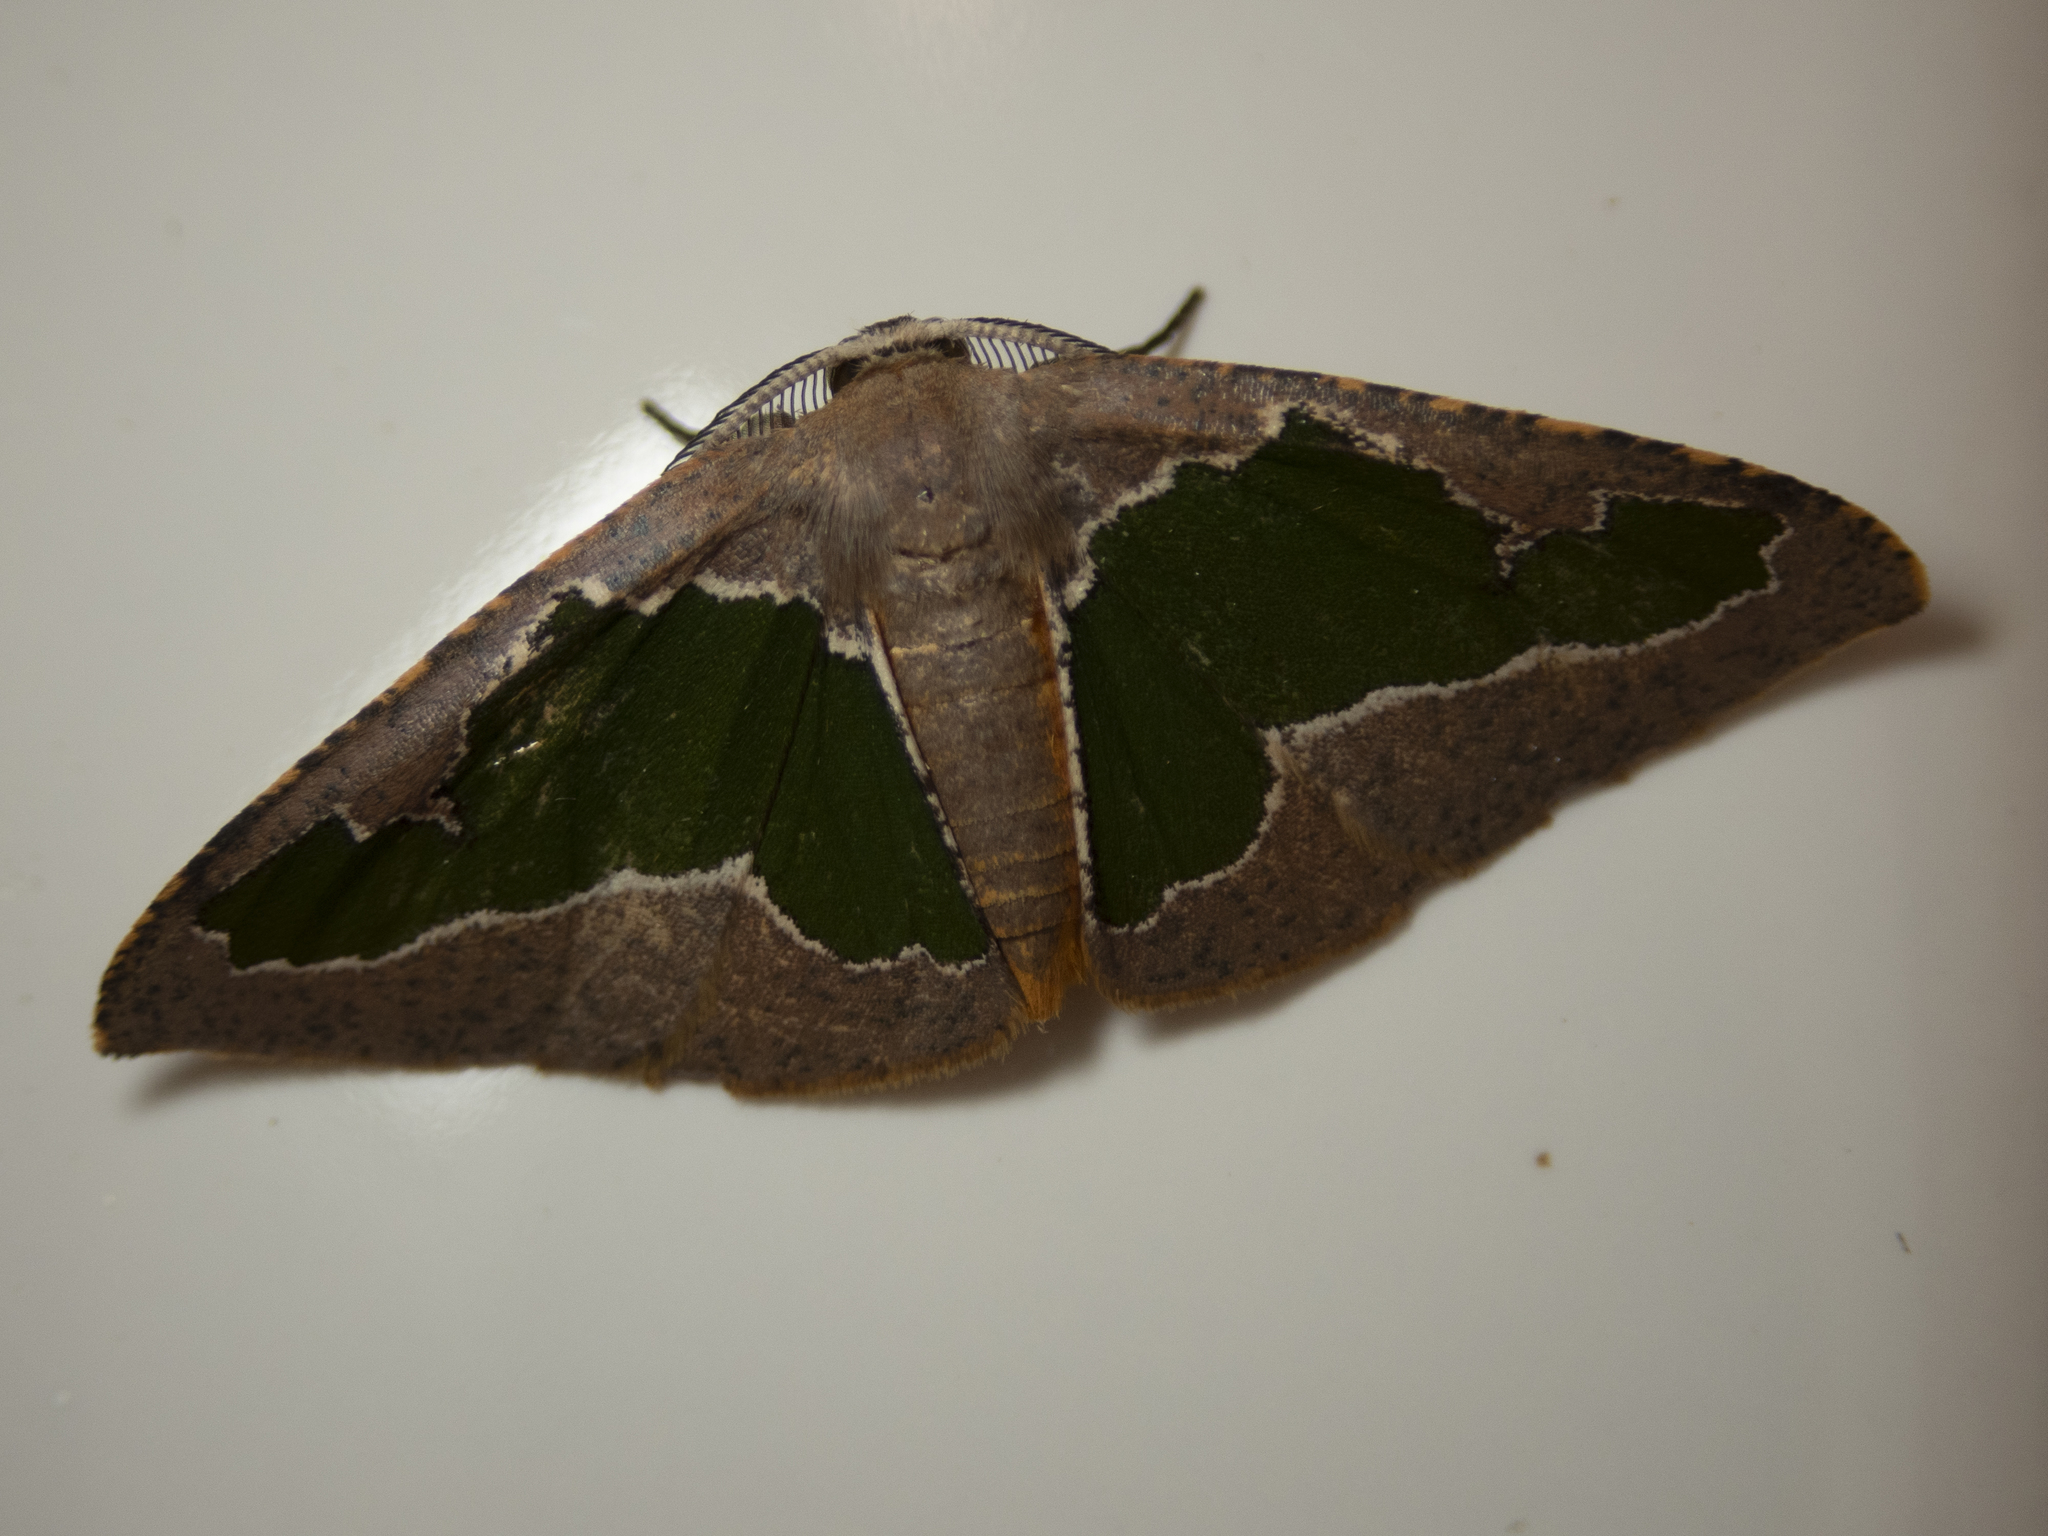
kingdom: Animalia
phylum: Arthropoda
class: Insecta
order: Lepidoptera
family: Geometridae
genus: Celenna
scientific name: Celenna festivaria
